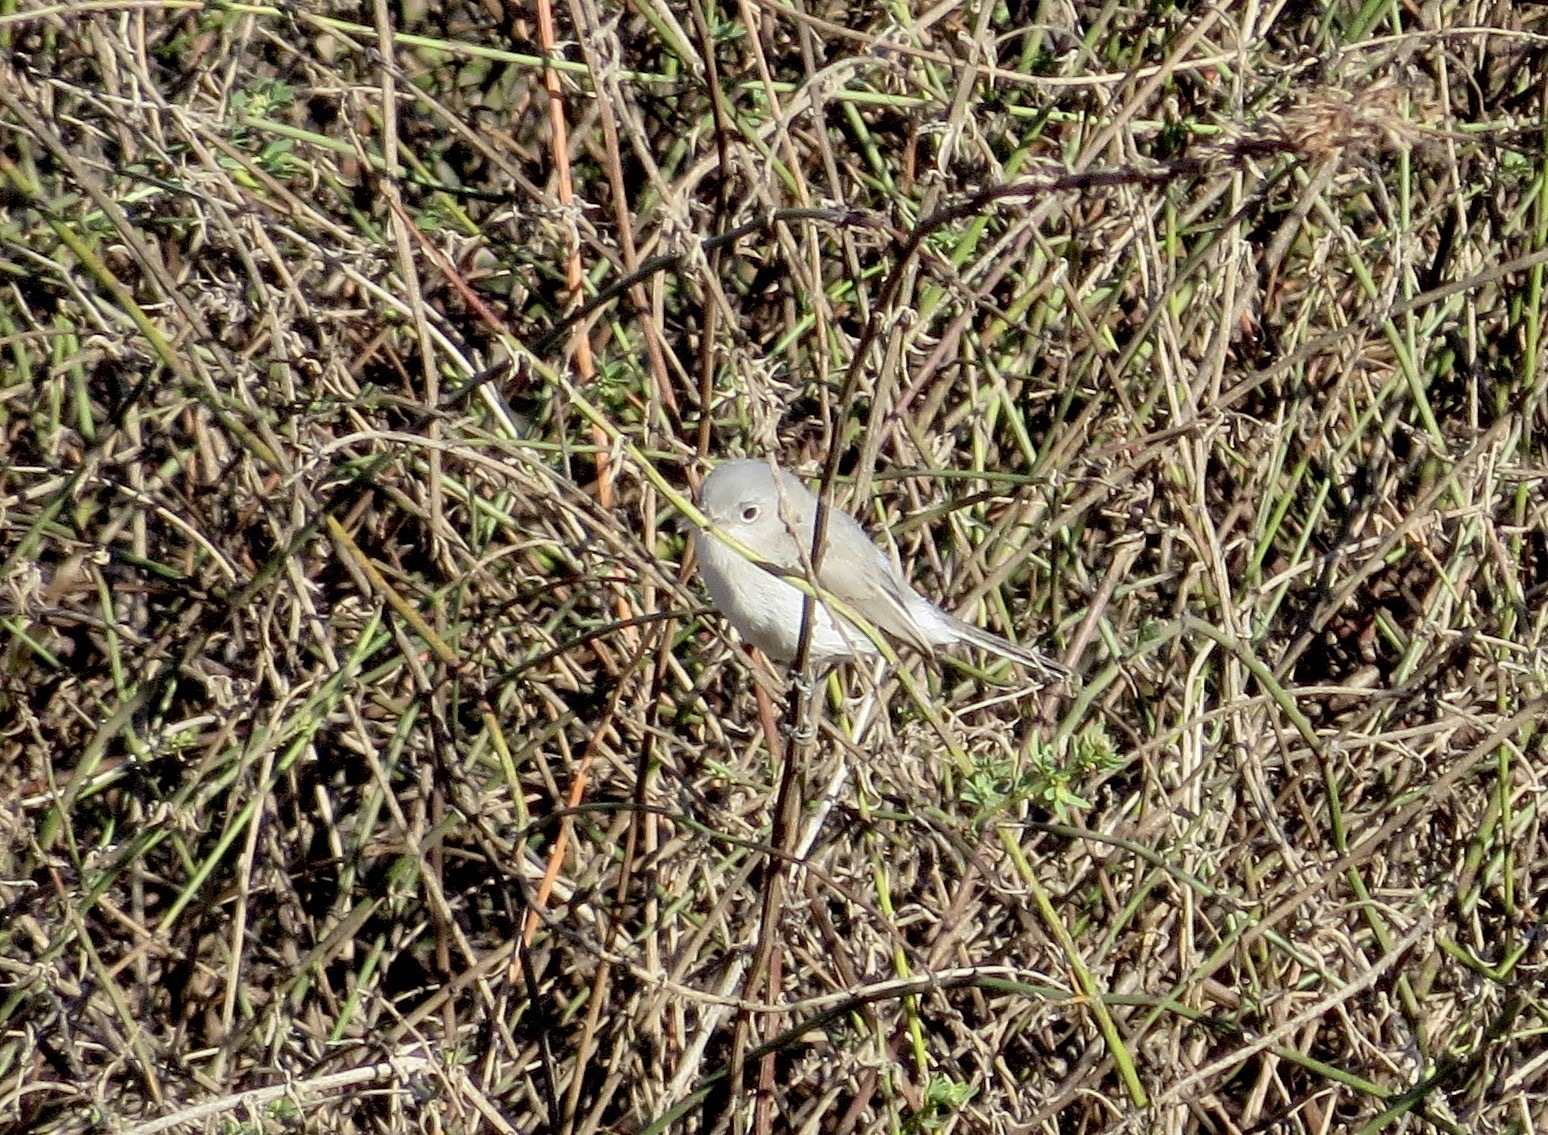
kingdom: Animalia
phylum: Chordata
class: Aves
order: Passeriformes
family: Polioptilidae
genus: Polioptila
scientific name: Polioptila caerulea
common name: Blue-gray gnatcatcher
